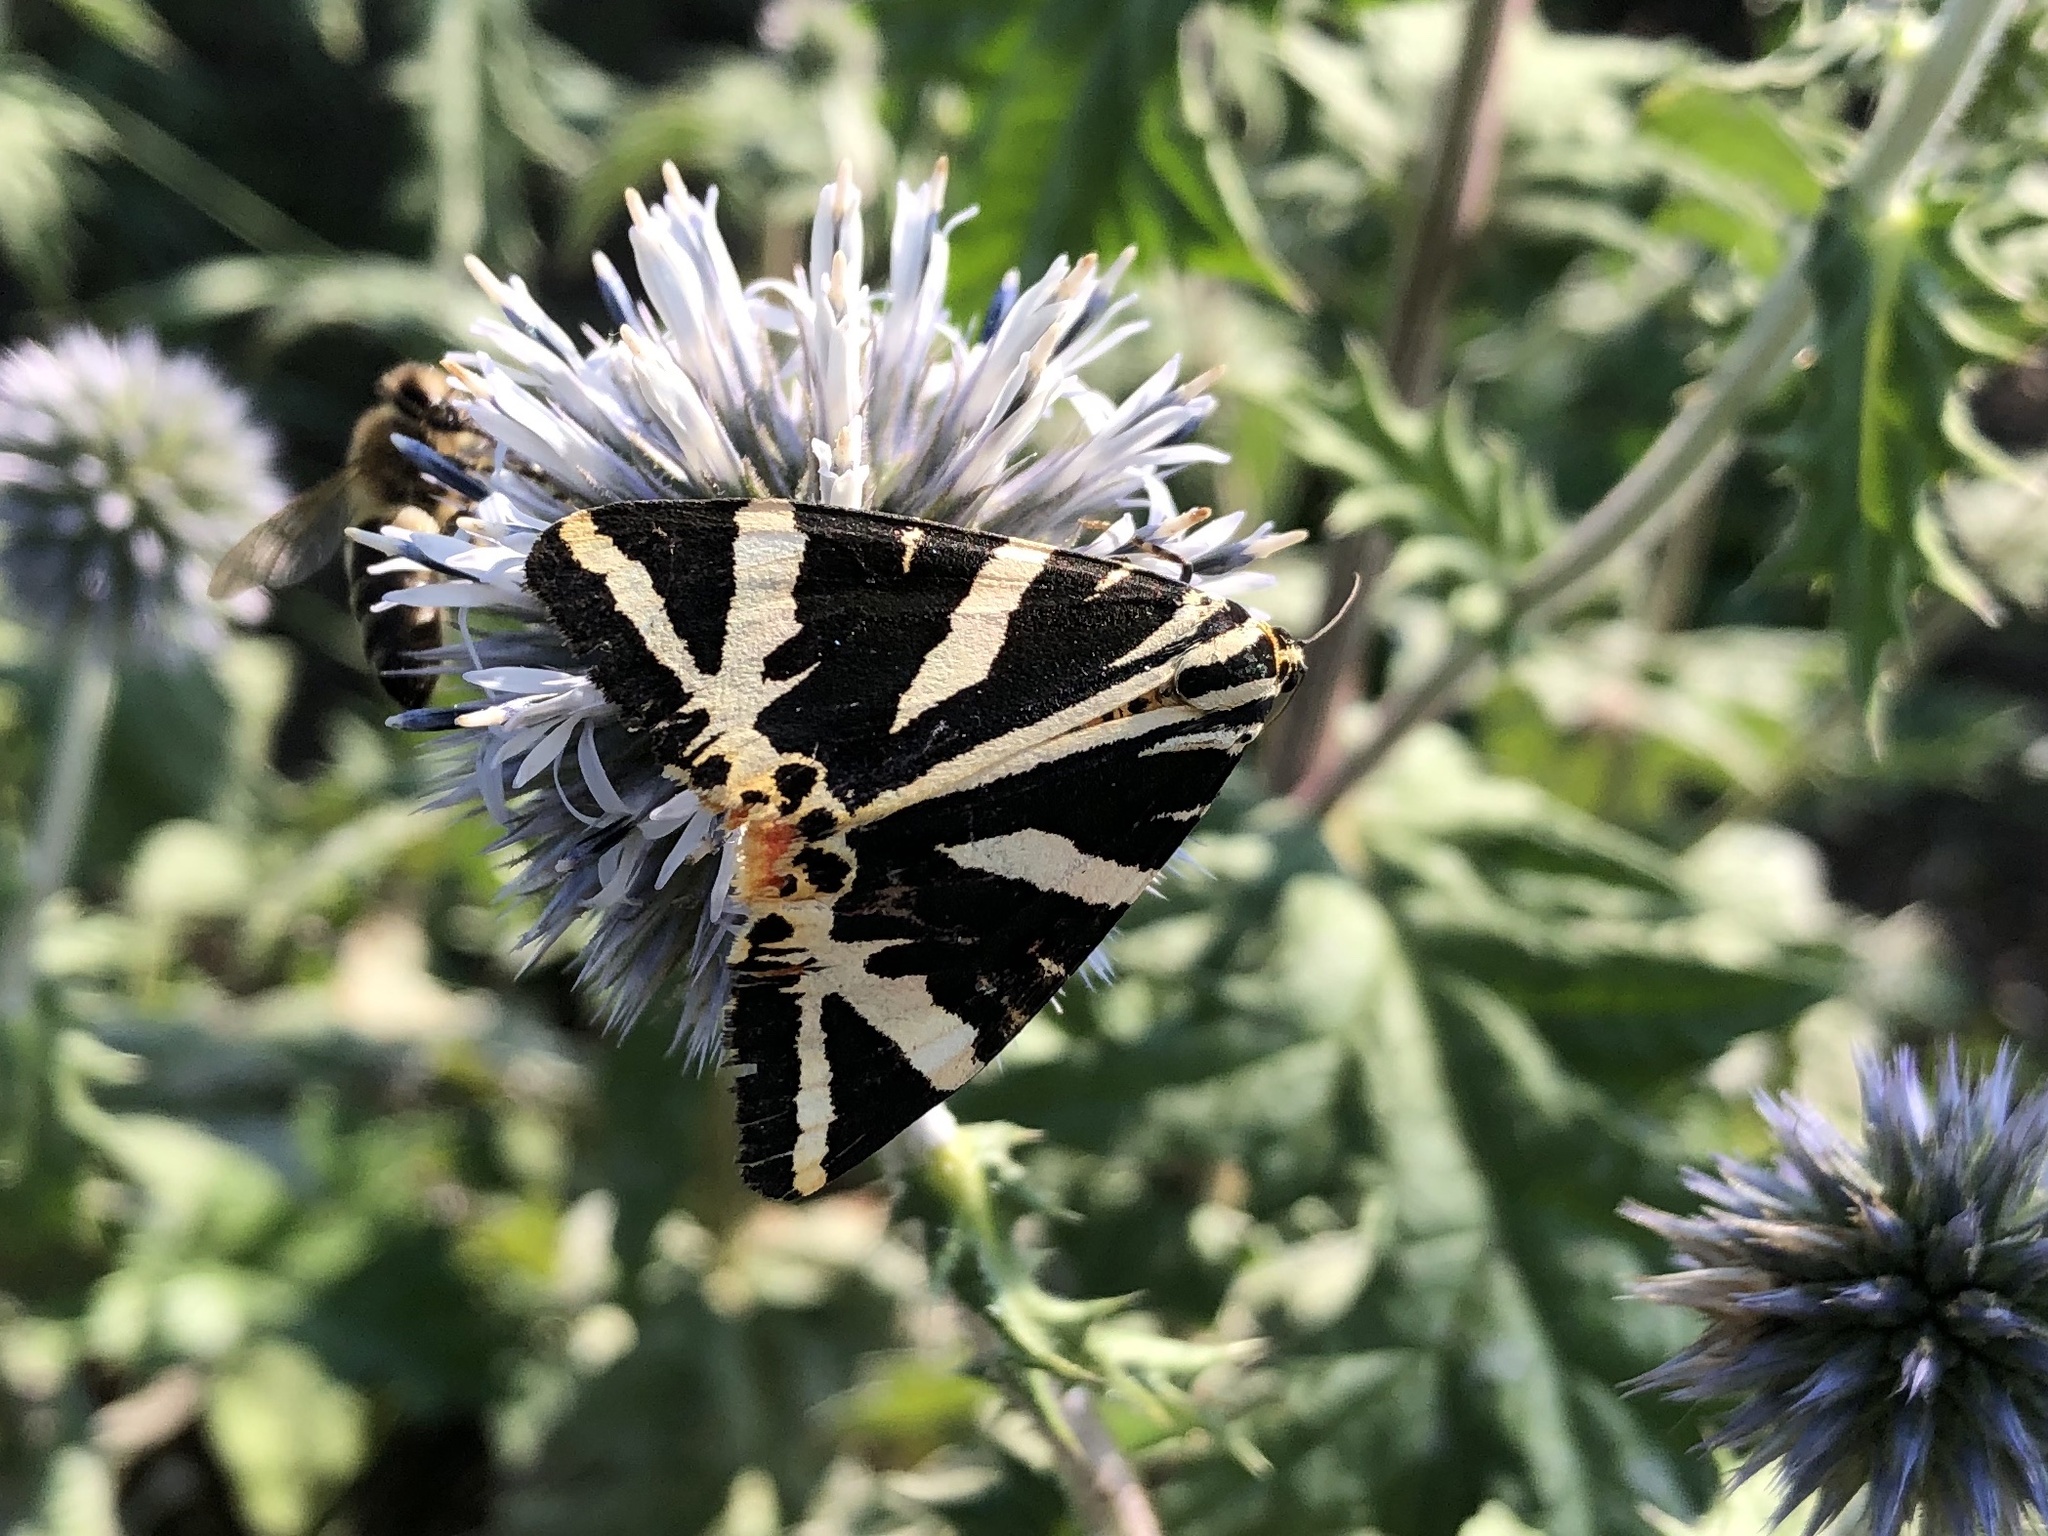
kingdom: Animalia
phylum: Arthropoda
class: Insecta
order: Lepidoptera
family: Erebidae
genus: Euplagia
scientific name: Euplagia quadripunctaria
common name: Jersey tiger
